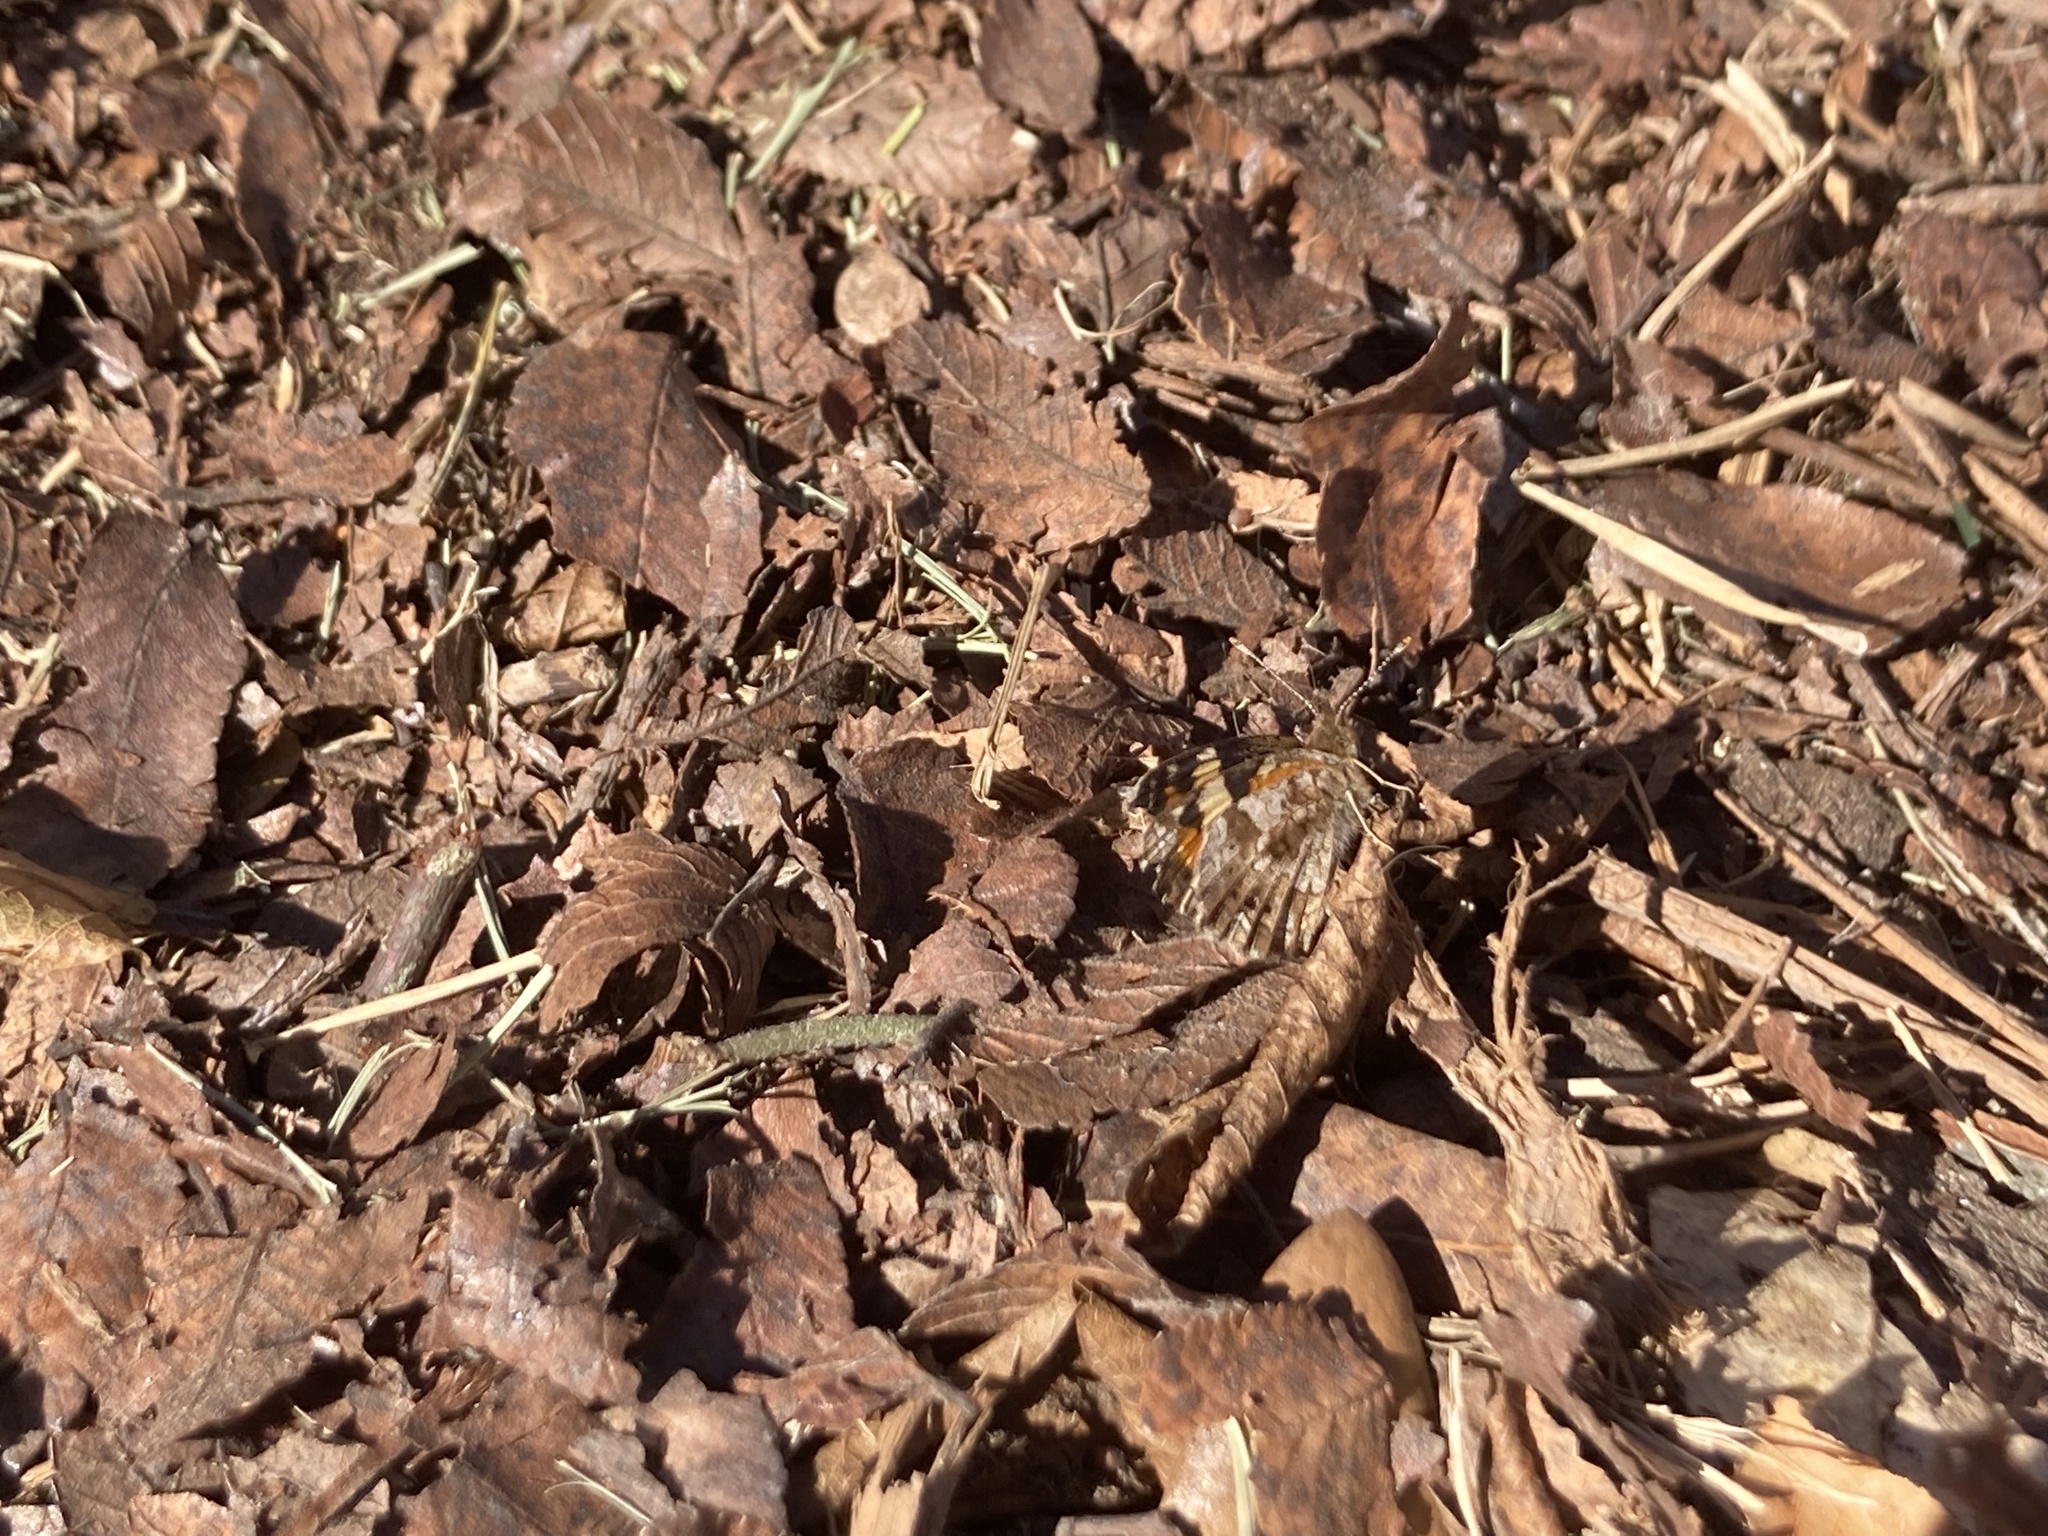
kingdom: Animalia
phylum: Arthropoda
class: Insecta
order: Lepidoptera
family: Nymphalidae
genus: Phyciodes
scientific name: Phyciodes phaon
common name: Phaon crescent
